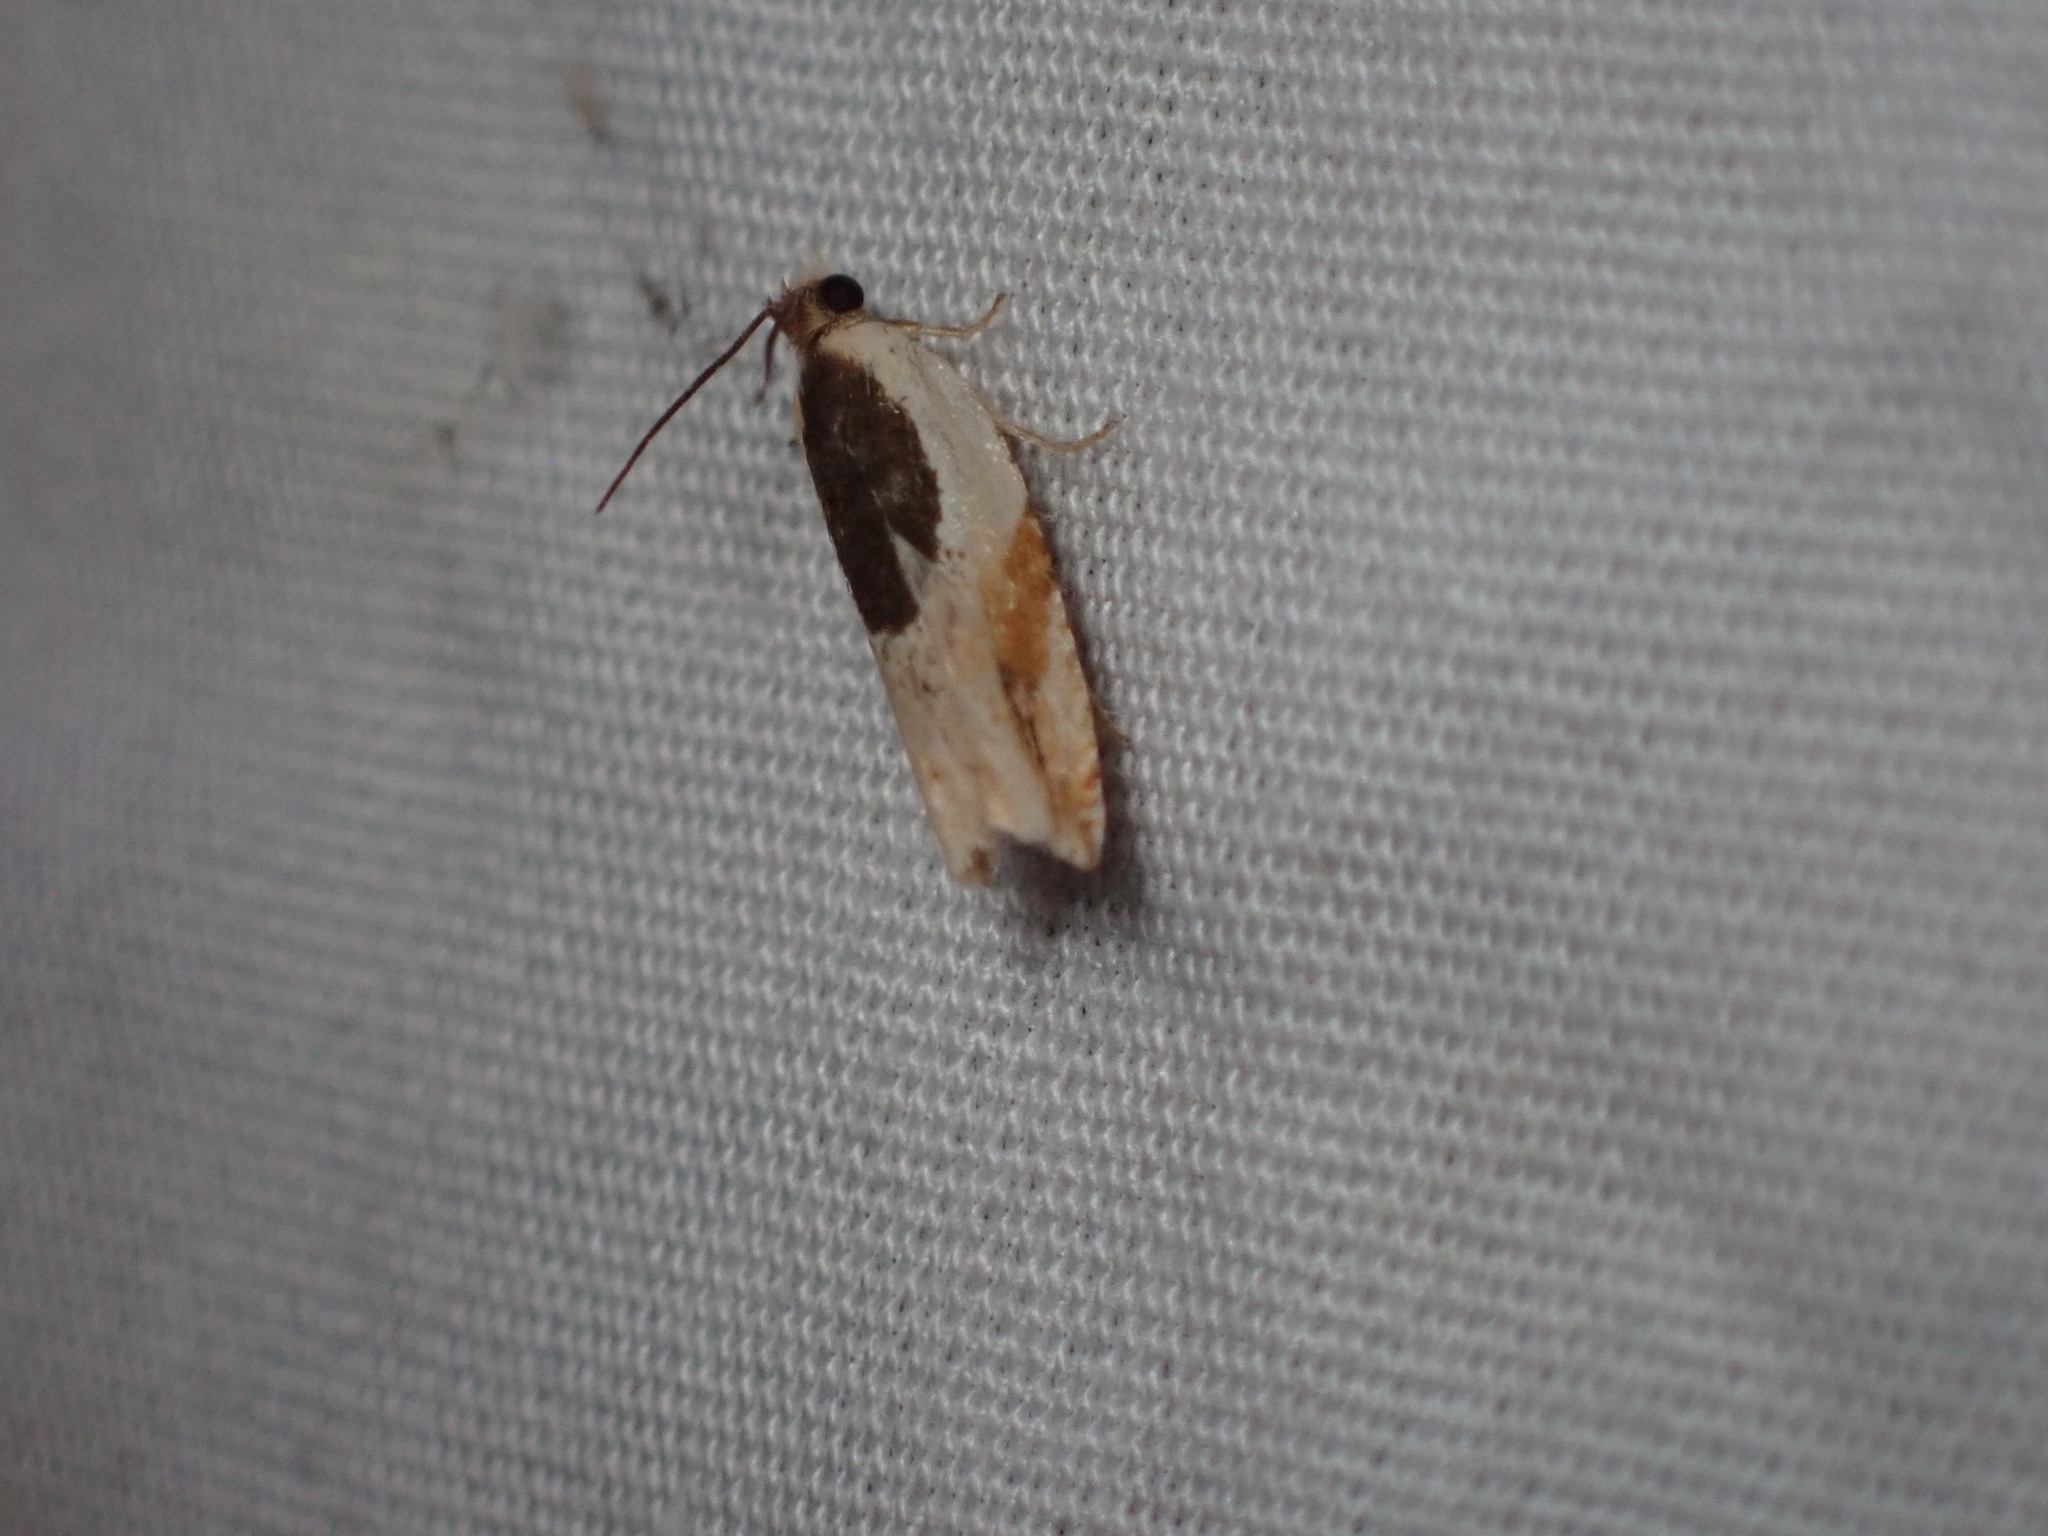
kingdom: Animalia
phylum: Arthropoda
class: Insecta
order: Lepidoptera
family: Tortricidae
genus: Ancylis
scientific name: Ancylis burgessiana
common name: Oak leaffolder moth
